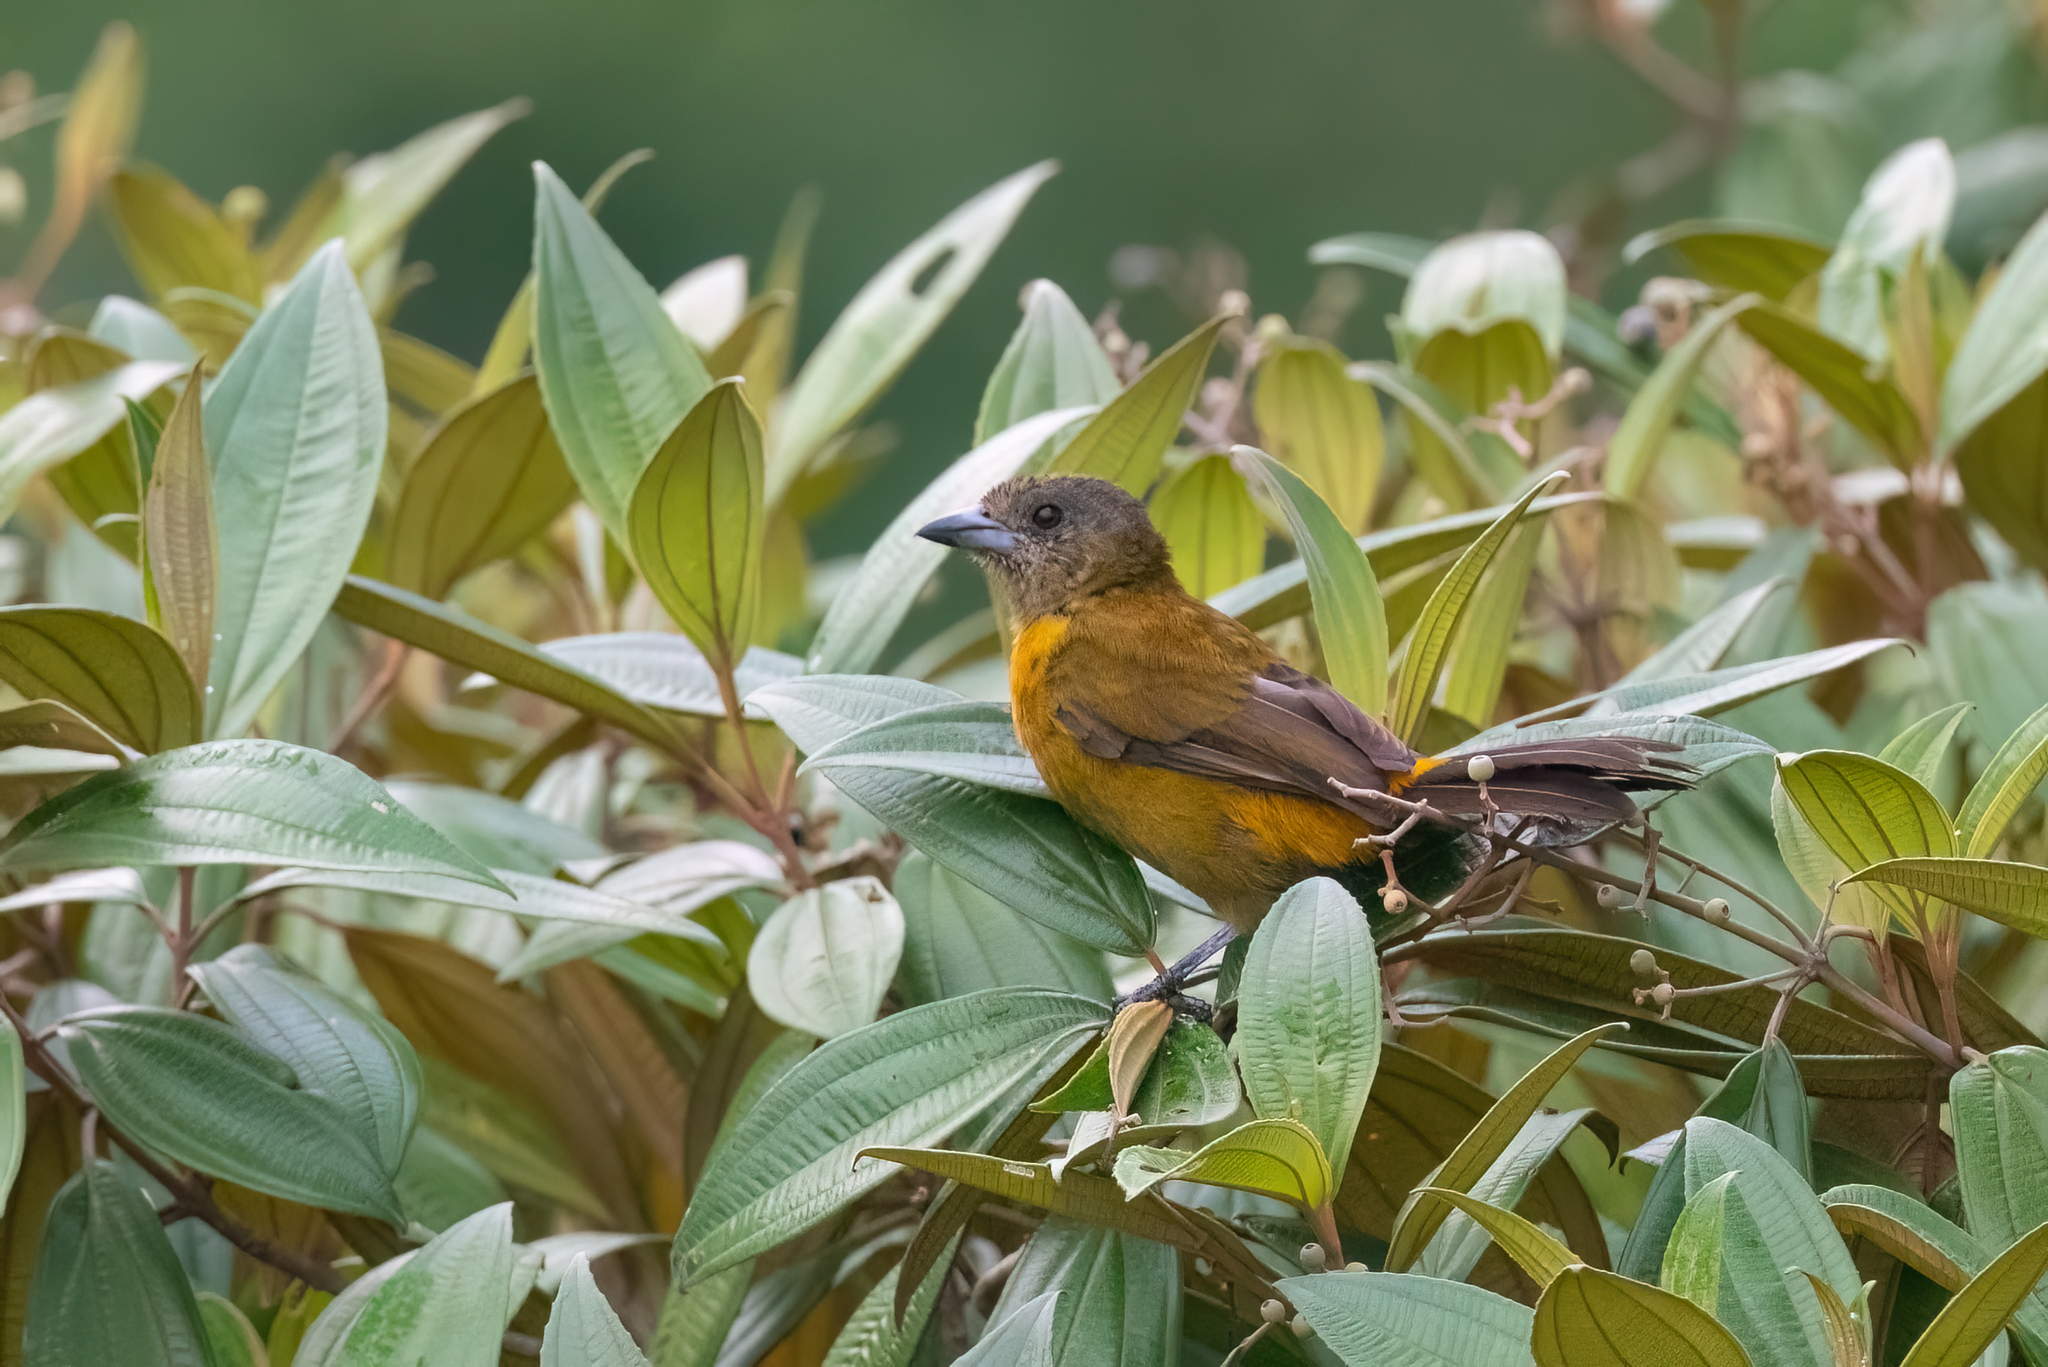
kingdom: Animalia
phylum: Chordata
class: Aves
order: Passeriformes
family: Thraupidae
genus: Ramphocelus
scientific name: Ramphocelus passerinii
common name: Passerini's tanager
